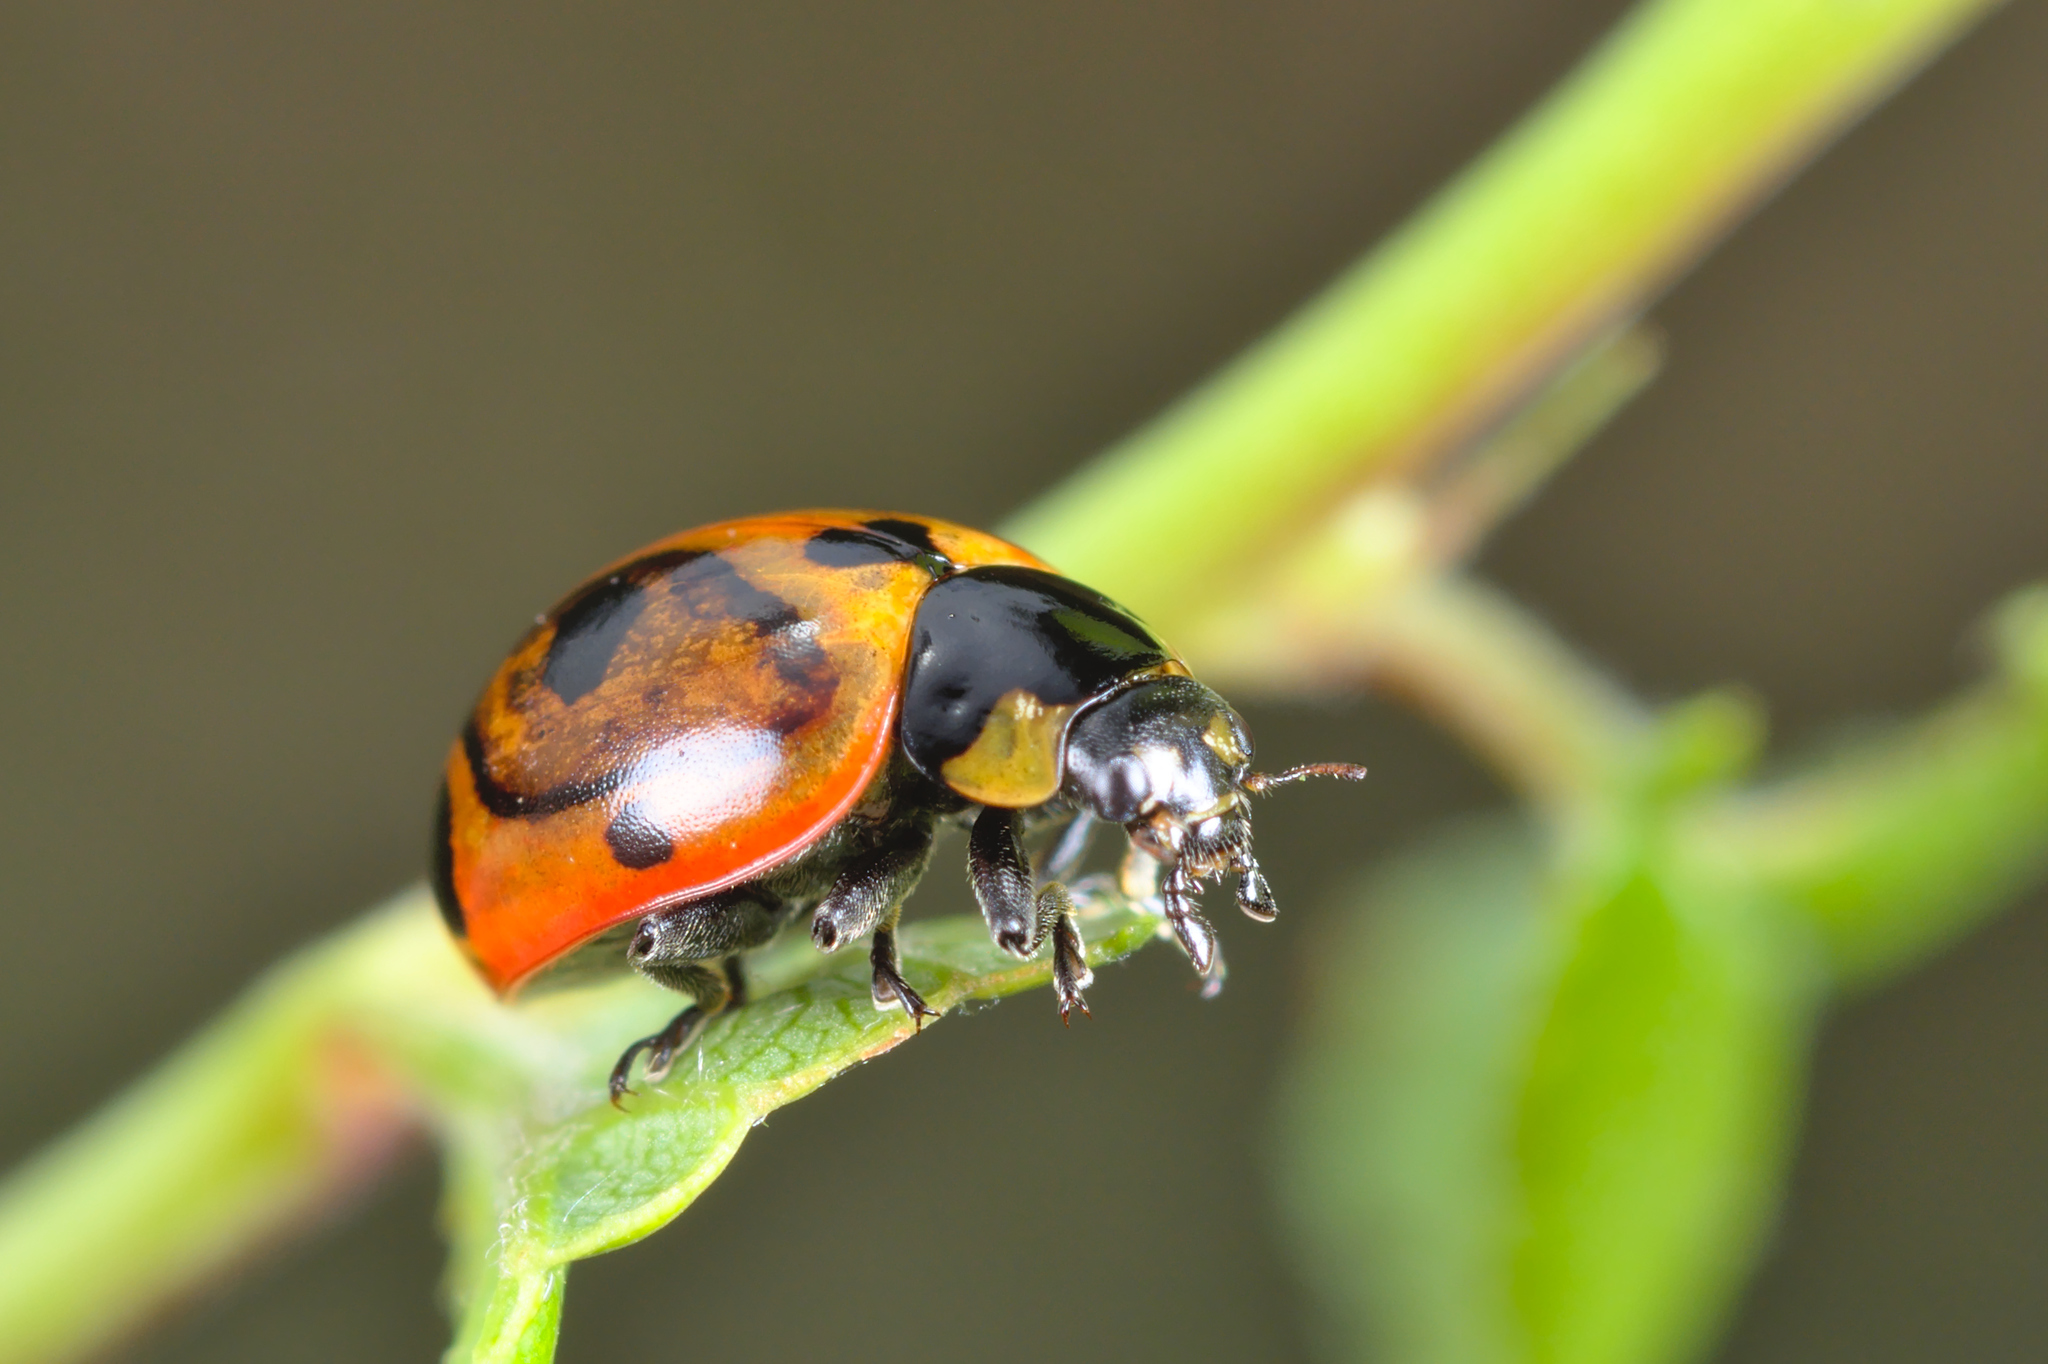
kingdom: Animalia
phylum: Arthropoda
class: Insecta
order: Coleoptera
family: Coccinellidae
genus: Coccinella
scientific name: Coccinella magnifica
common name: Scarce 7-spot ladybird
